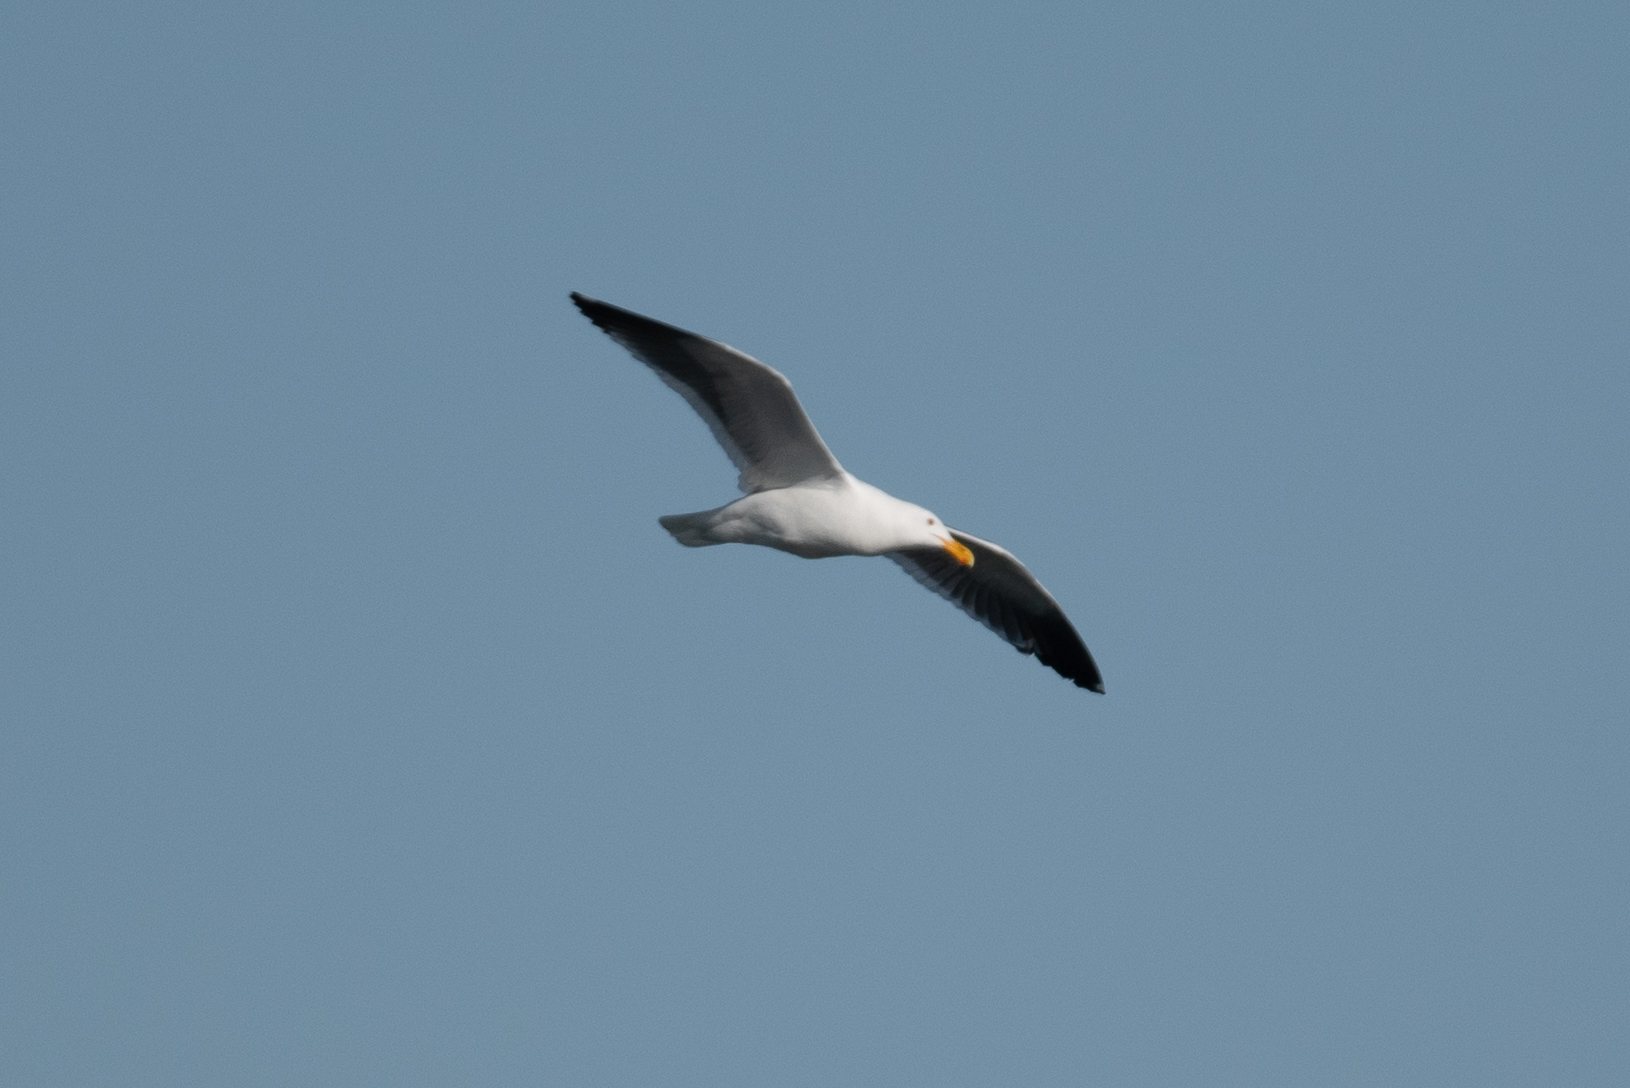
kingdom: Animalia
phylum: Chordata
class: Aves
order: Charadriiformes
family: Laridae
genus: Larus
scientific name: Larus occidentalis
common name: Western gull
